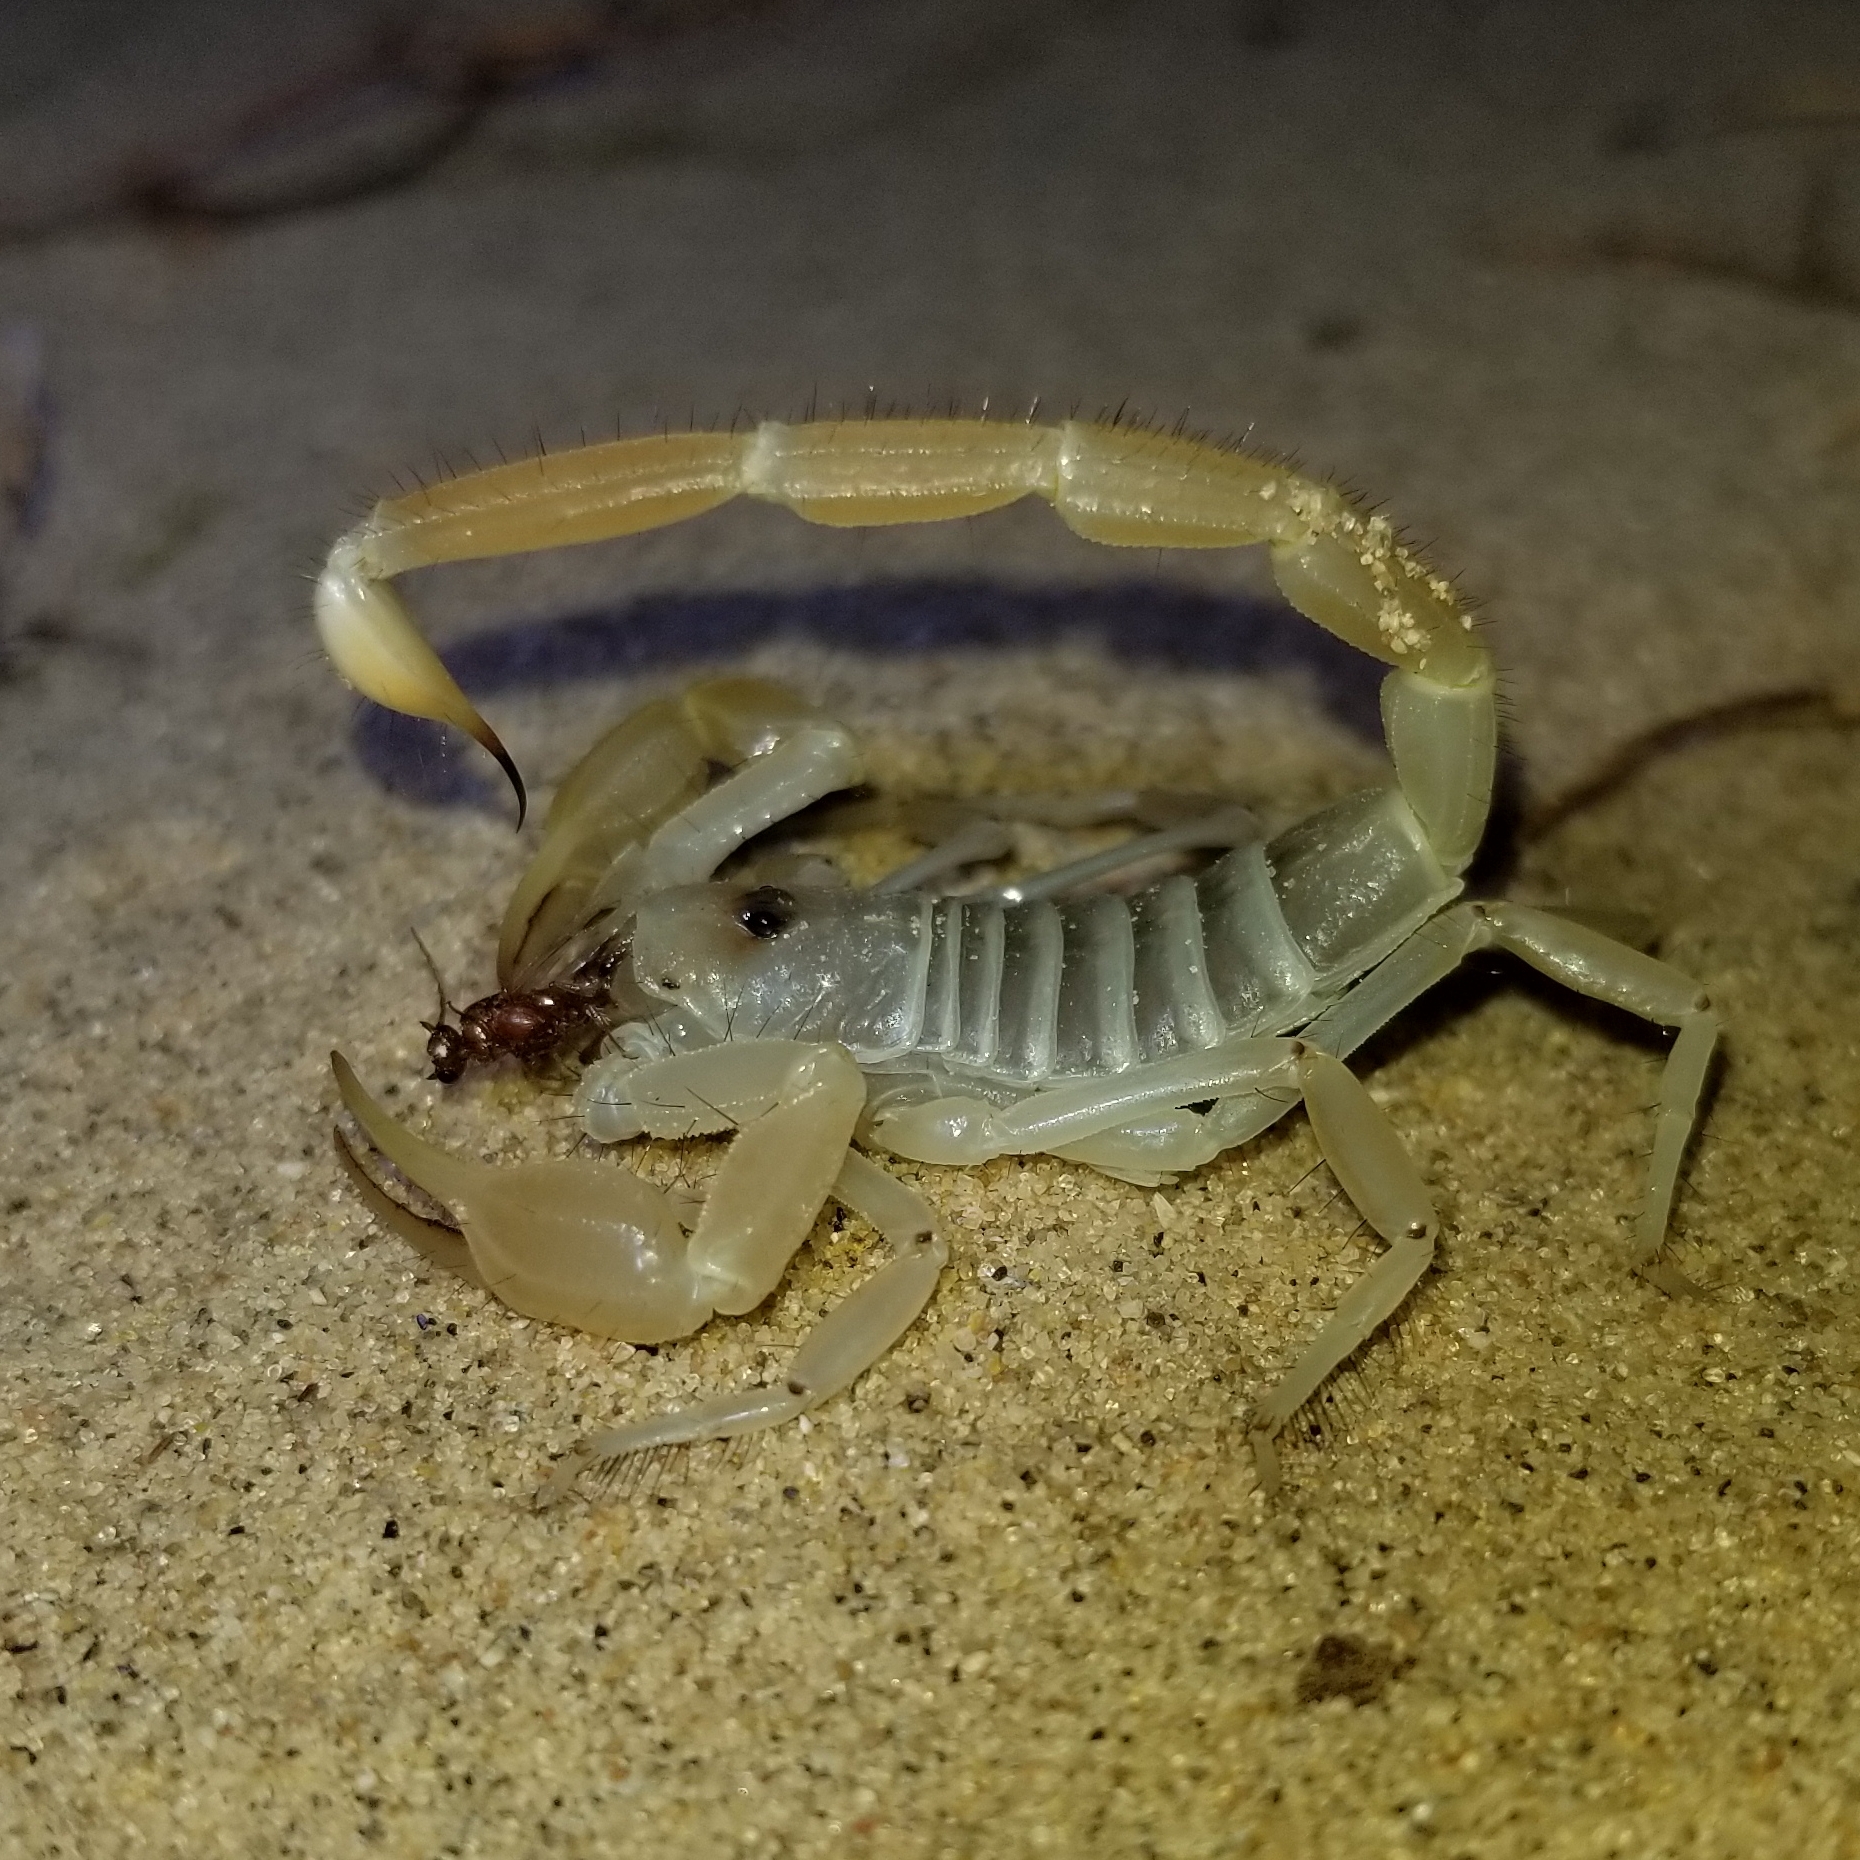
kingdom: Animalia
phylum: Arthropoda
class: Arachnida
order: Scorpiones
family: Vaejovidae
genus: Smeringurus
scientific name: Smeringurus mesaensis
